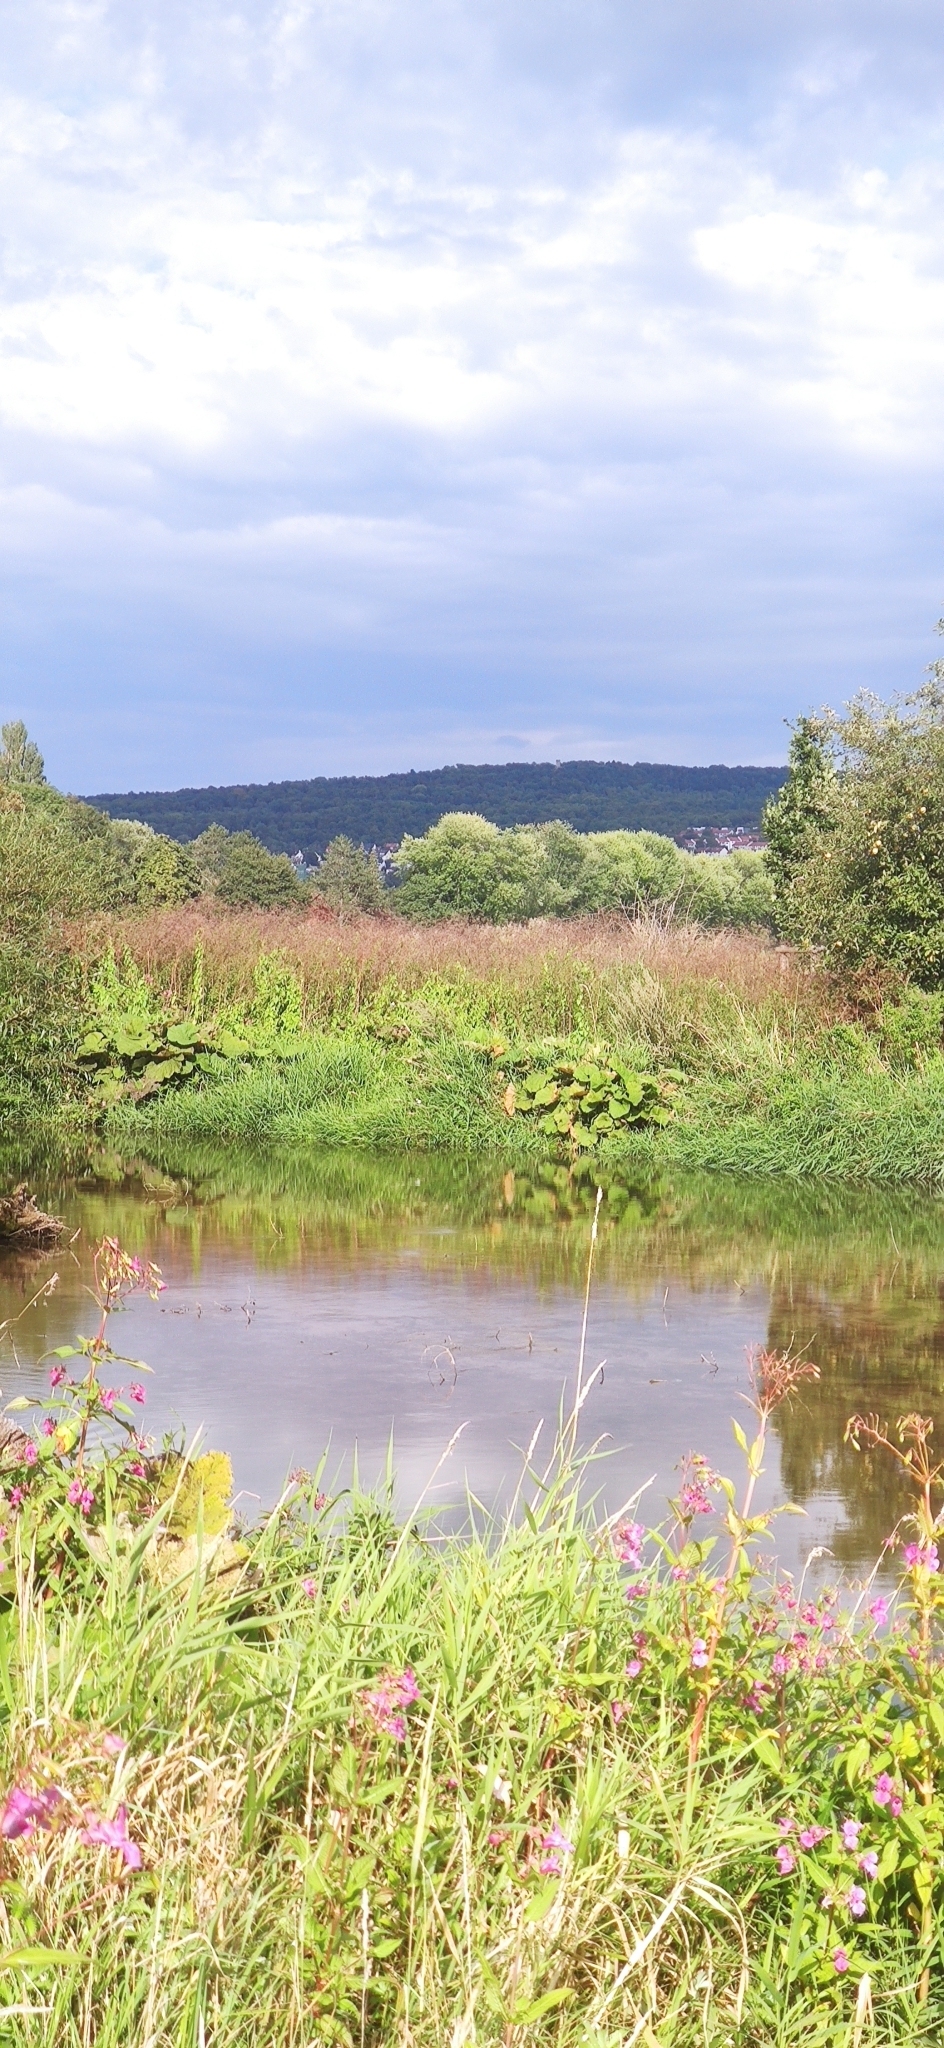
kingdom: Animalia
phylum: Chordata
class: Aves
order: Coraciiformes
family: Alcedinidae
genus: Alcedo
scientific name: Alcedo atthis
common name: Common kingfisher
